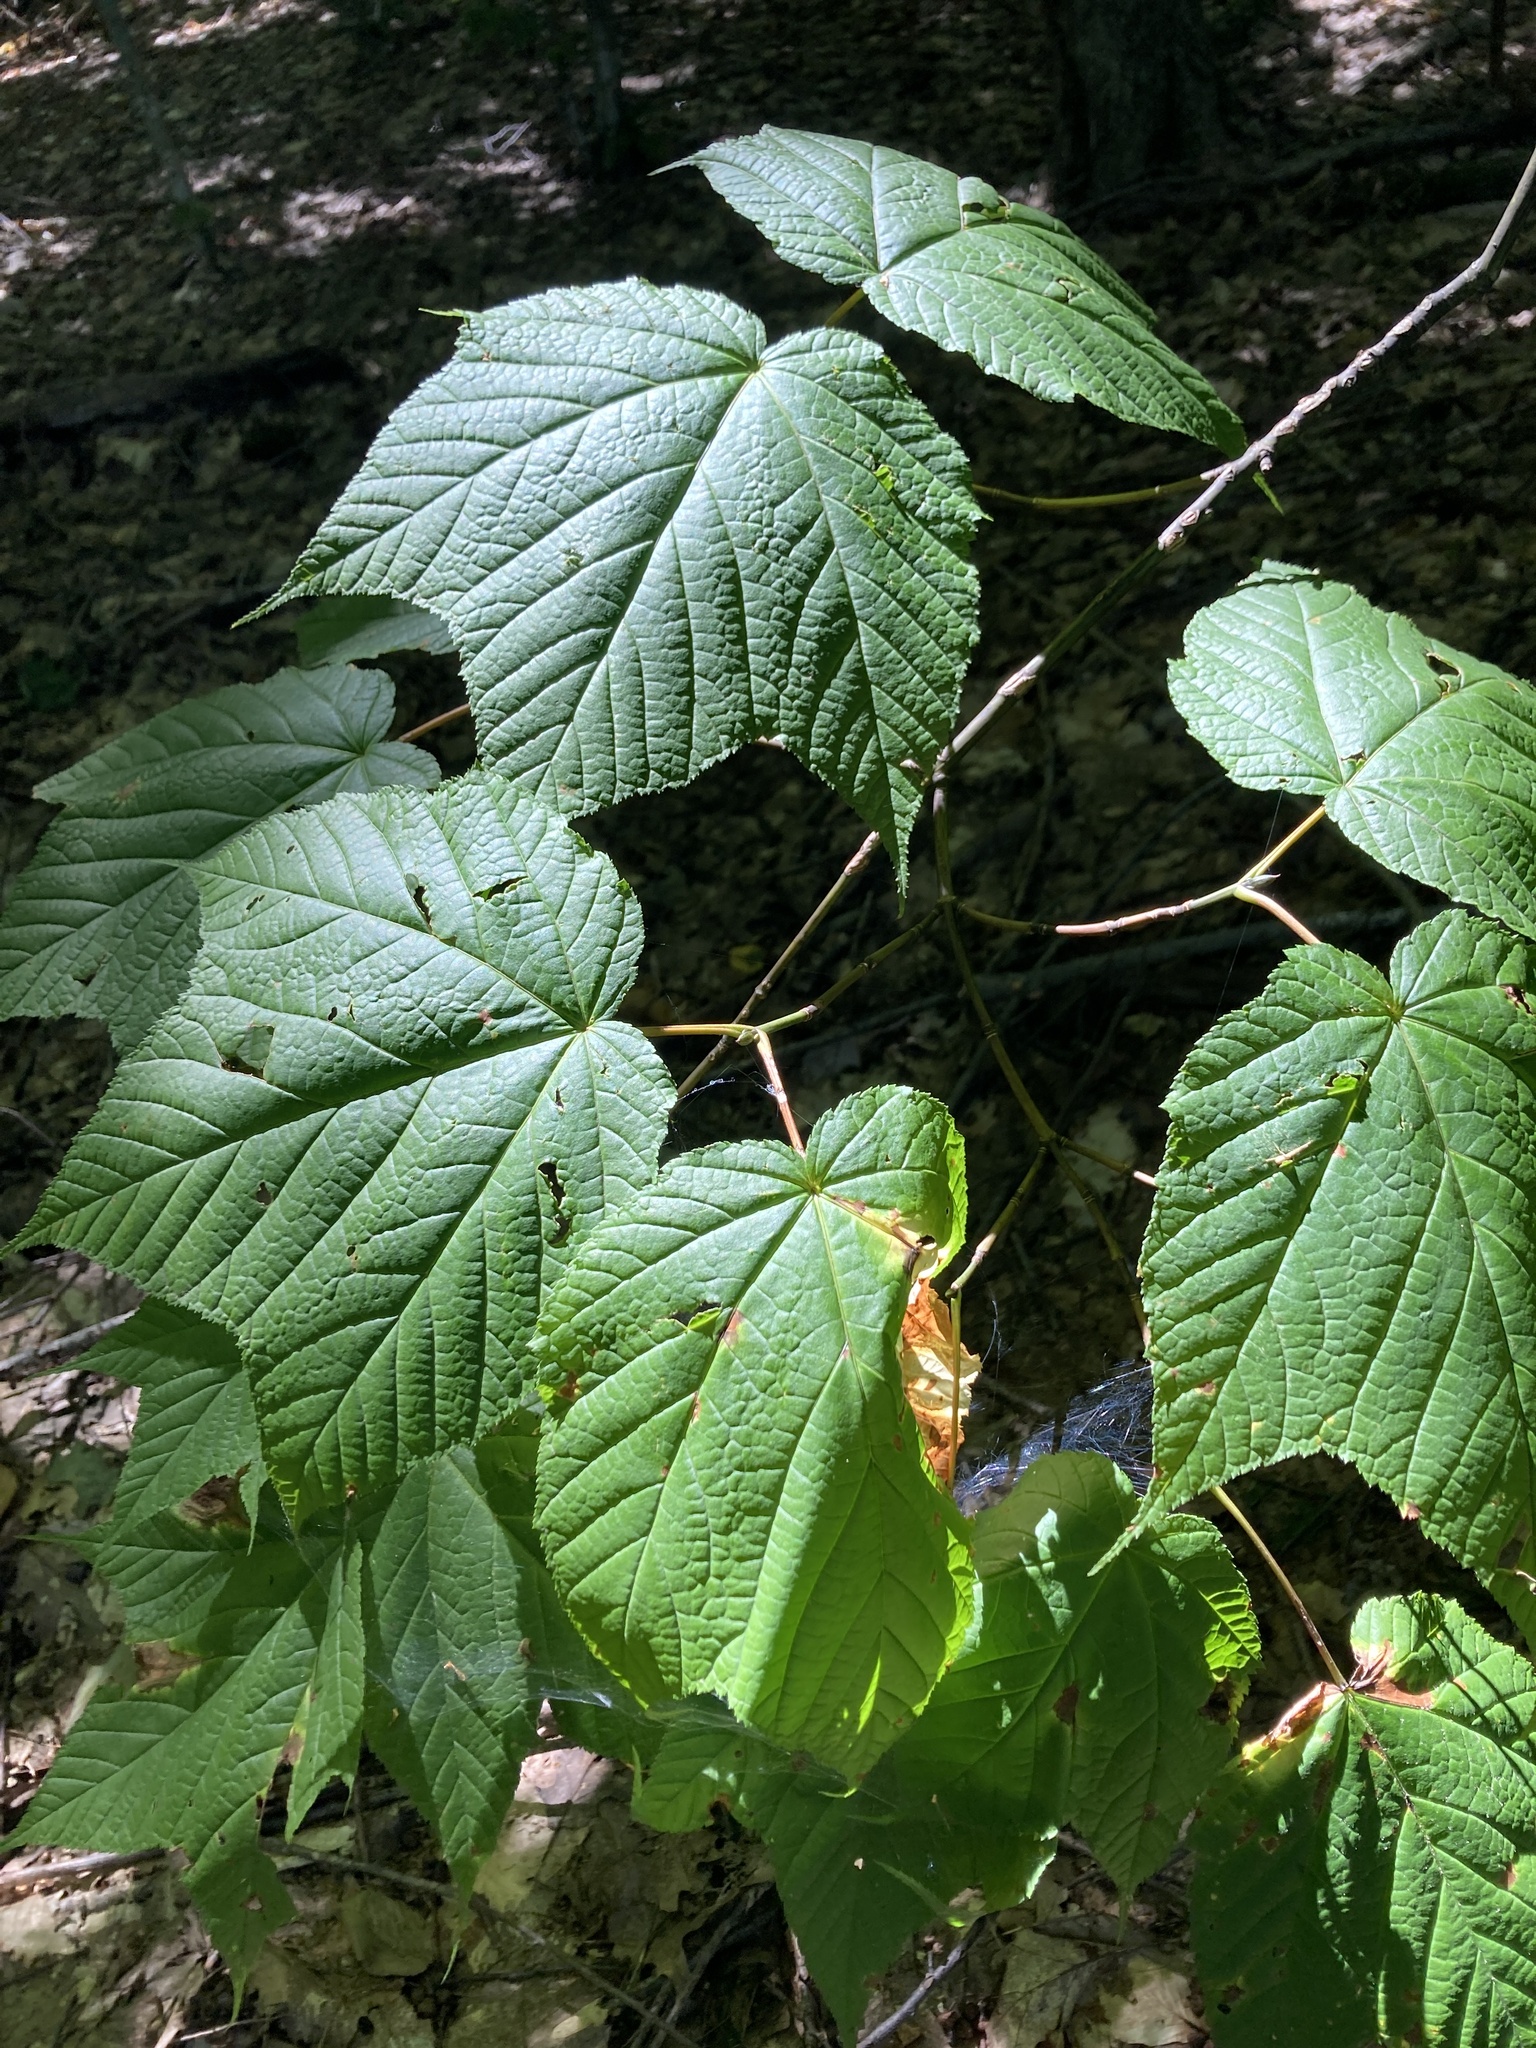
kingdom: Plantae
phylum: Tracheophyta
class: Magnoliopsida
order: Sapindales
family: Sapindaceae
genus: Acer
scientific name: Acer pensylvanicum
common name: Moosewood
